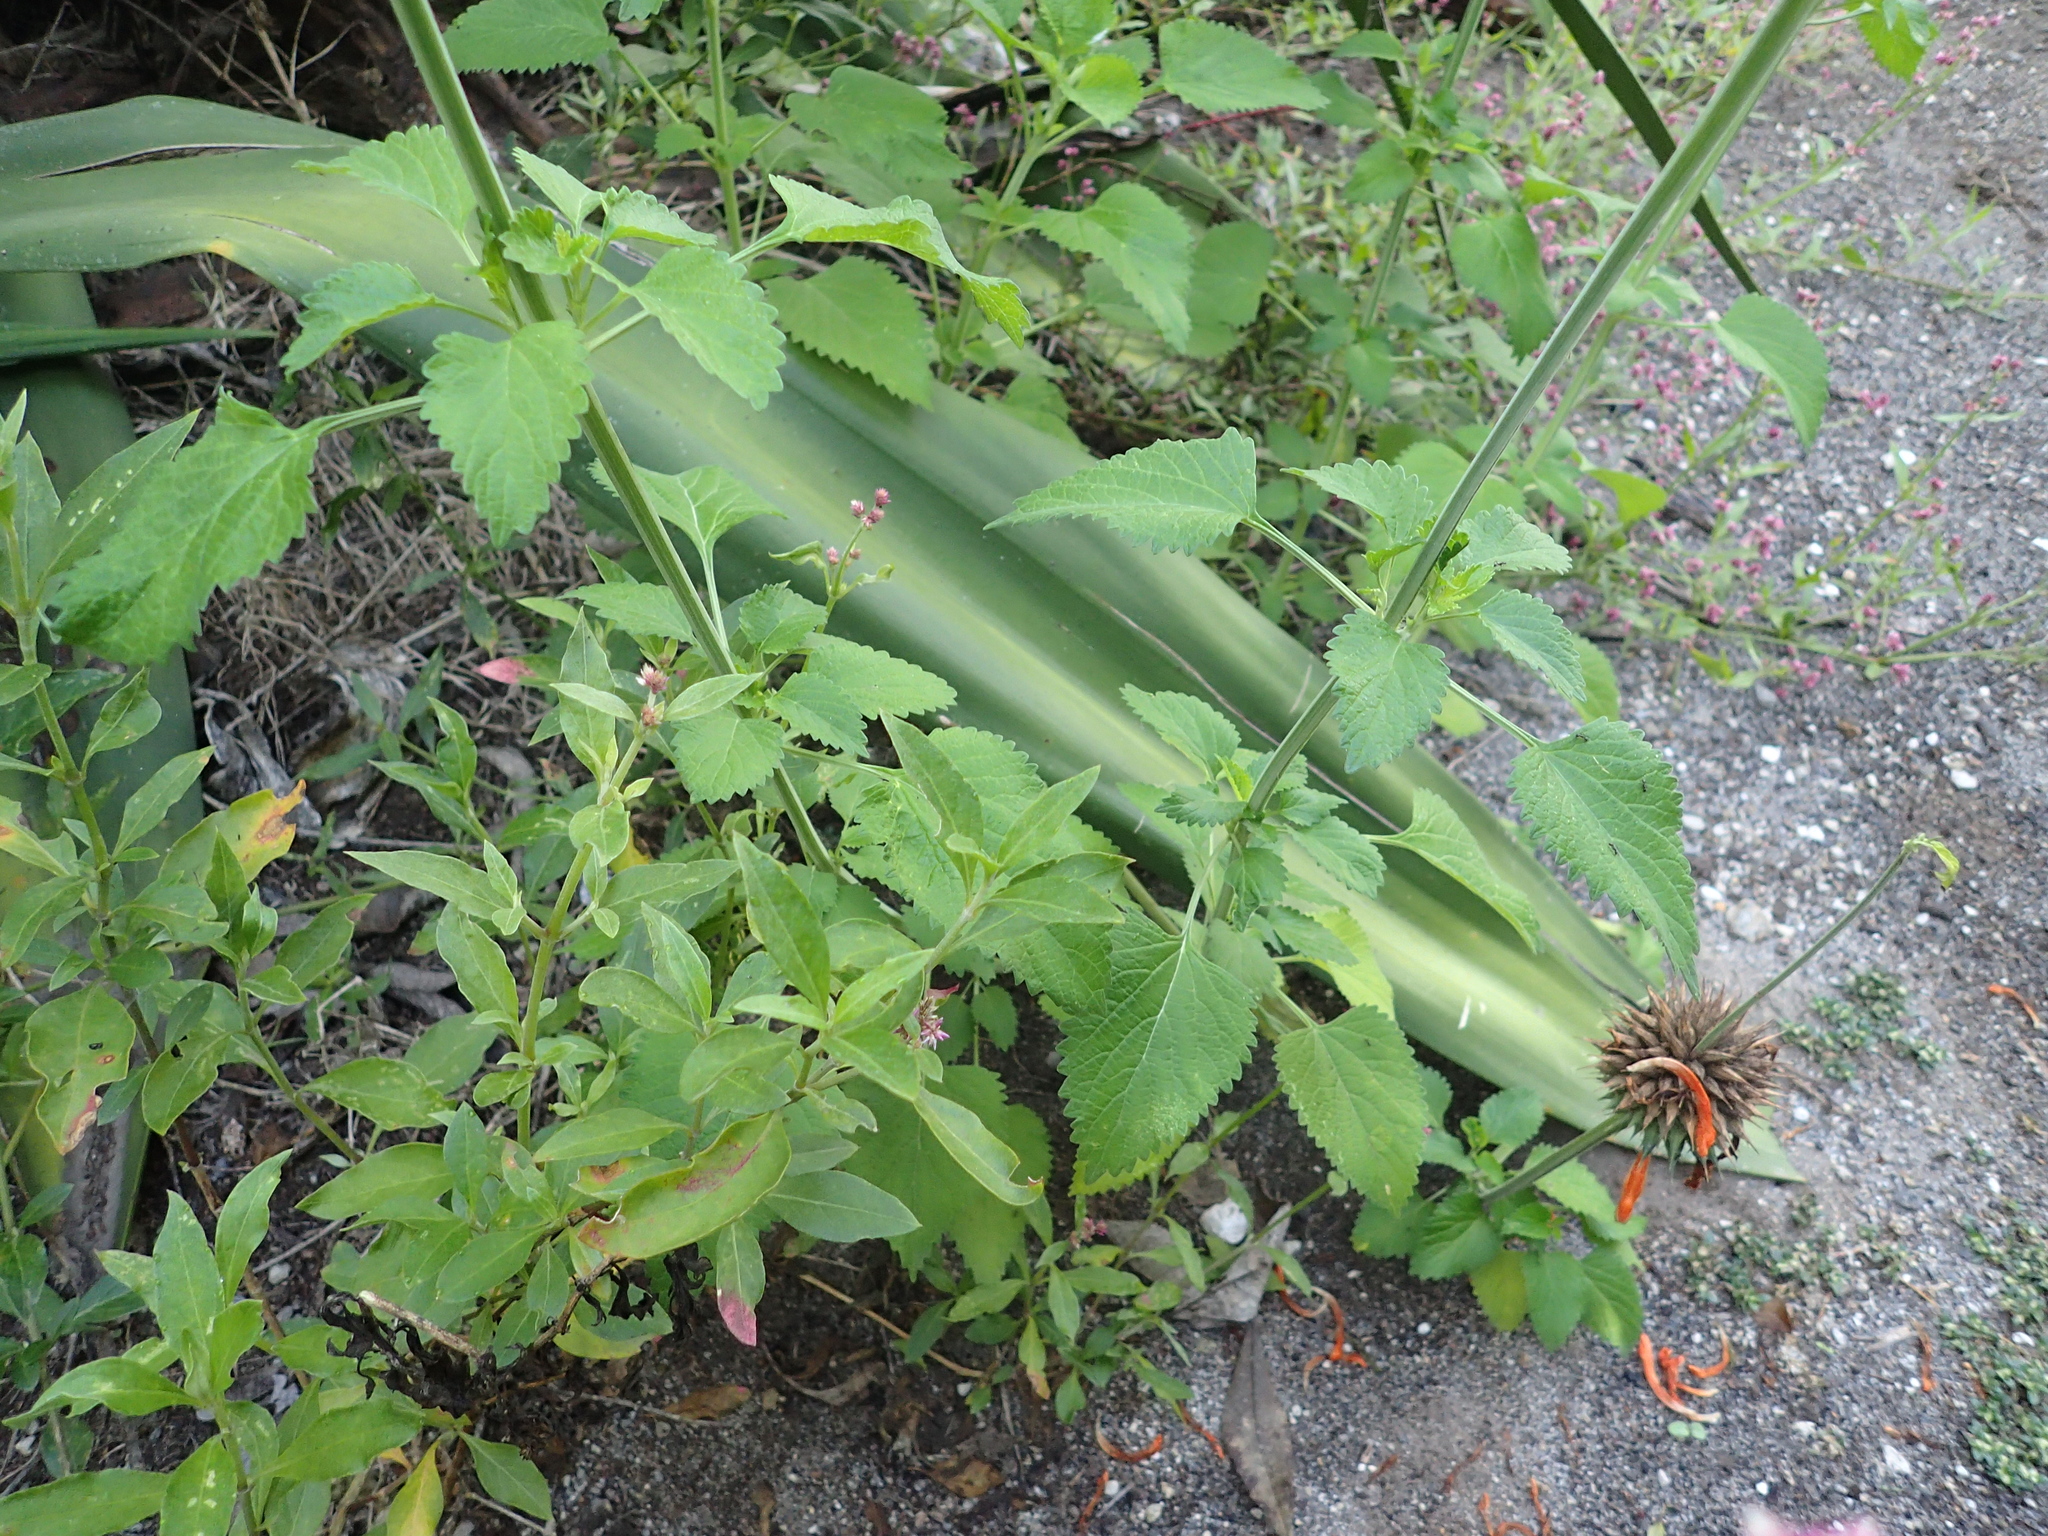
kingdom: Plantae
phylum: Tracheophyta
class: Magnoliopsida
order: Lamiales
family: Lamiaceae
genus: Leonotis
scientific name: Leonotis nepetifolia
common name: Christmas candlestick
